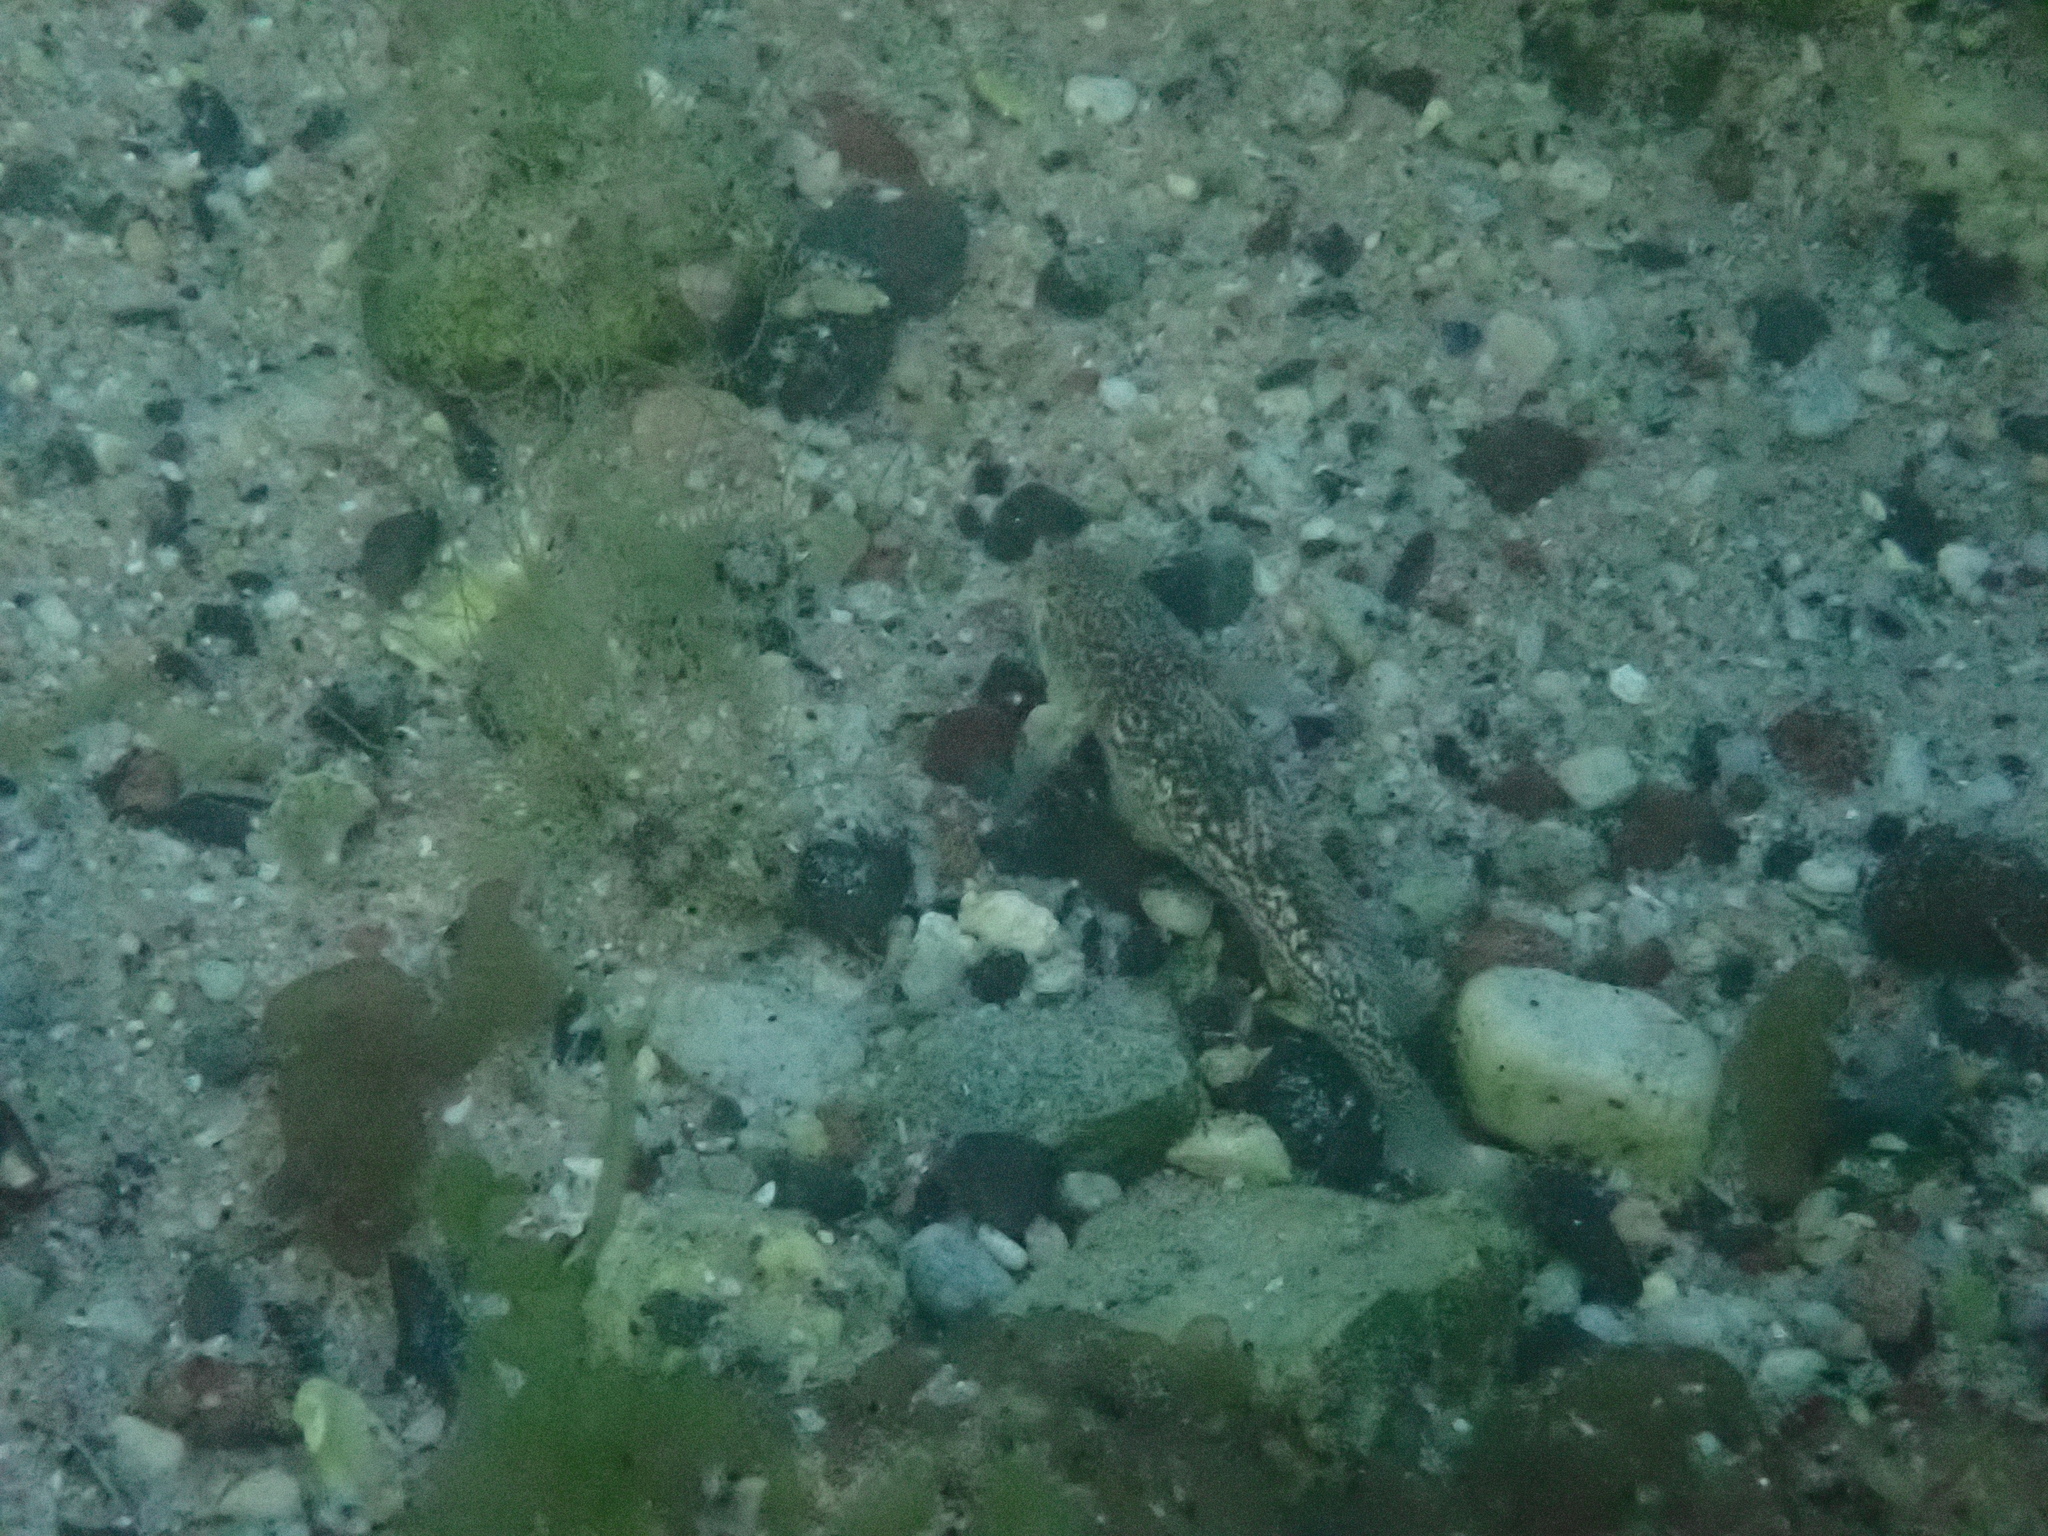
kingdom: Animalia
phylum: Chordata
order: Perciformes
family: Gobiidae
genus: Caffrogobius
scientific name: Caffrogobius caffer
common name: Banded goby
